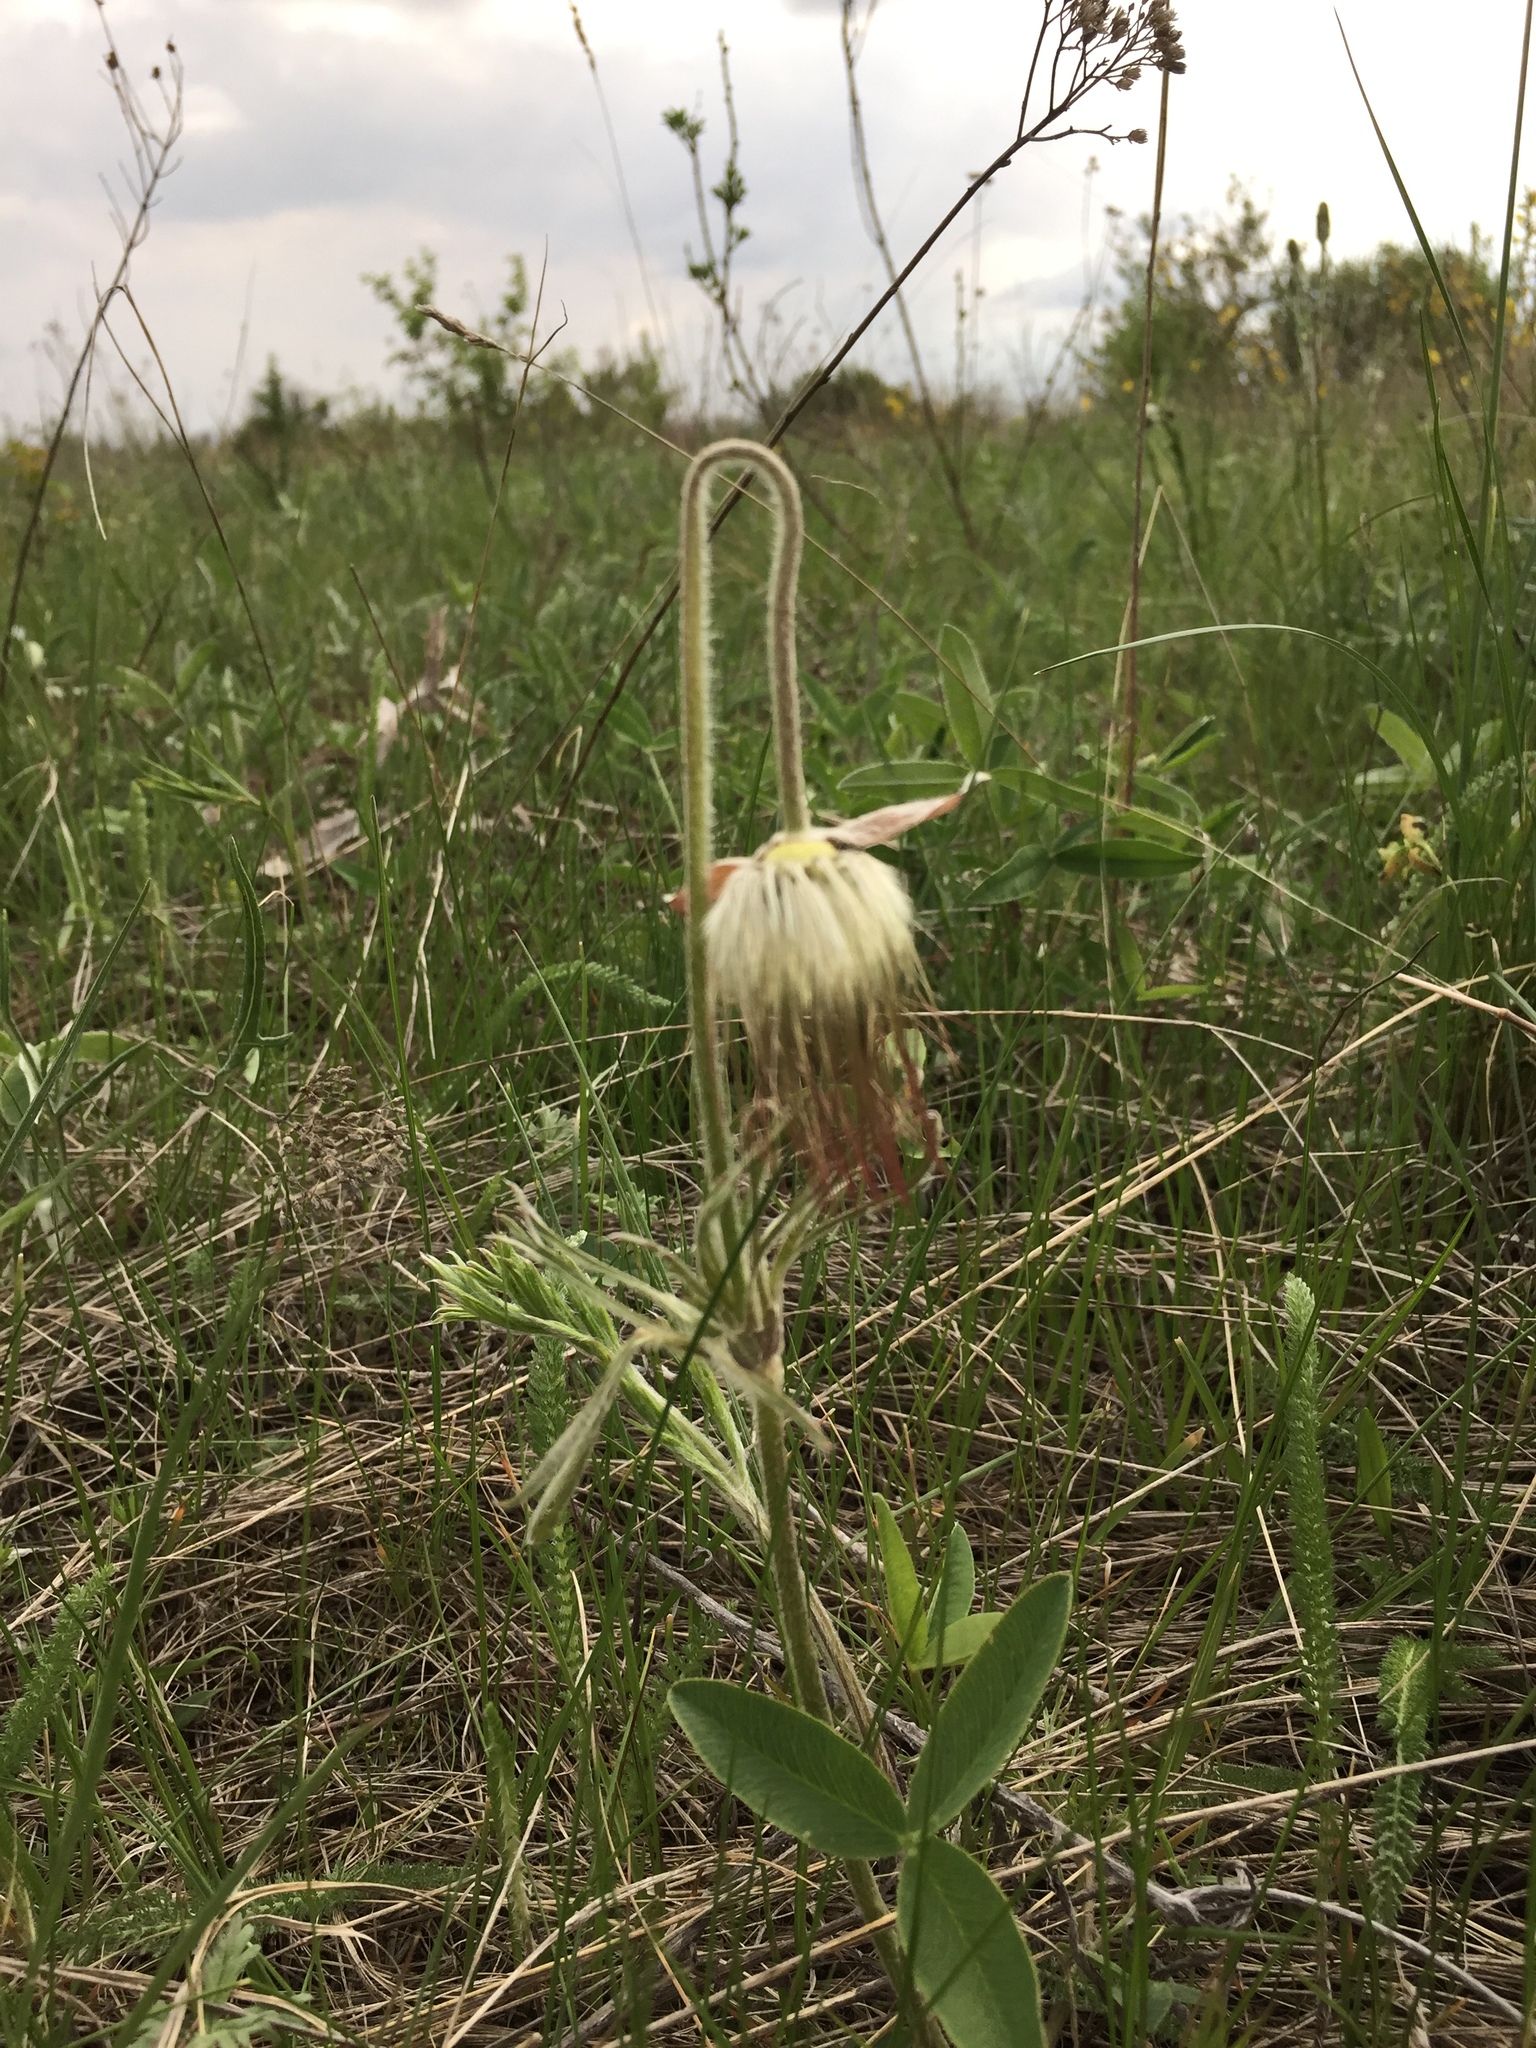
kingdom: Plantae
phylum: Tracheophyta
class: Magnoliopsida
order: Ranunculales
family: Ranunculaceae
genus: Pulsatilla
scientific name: Pulsatilla pratensis
